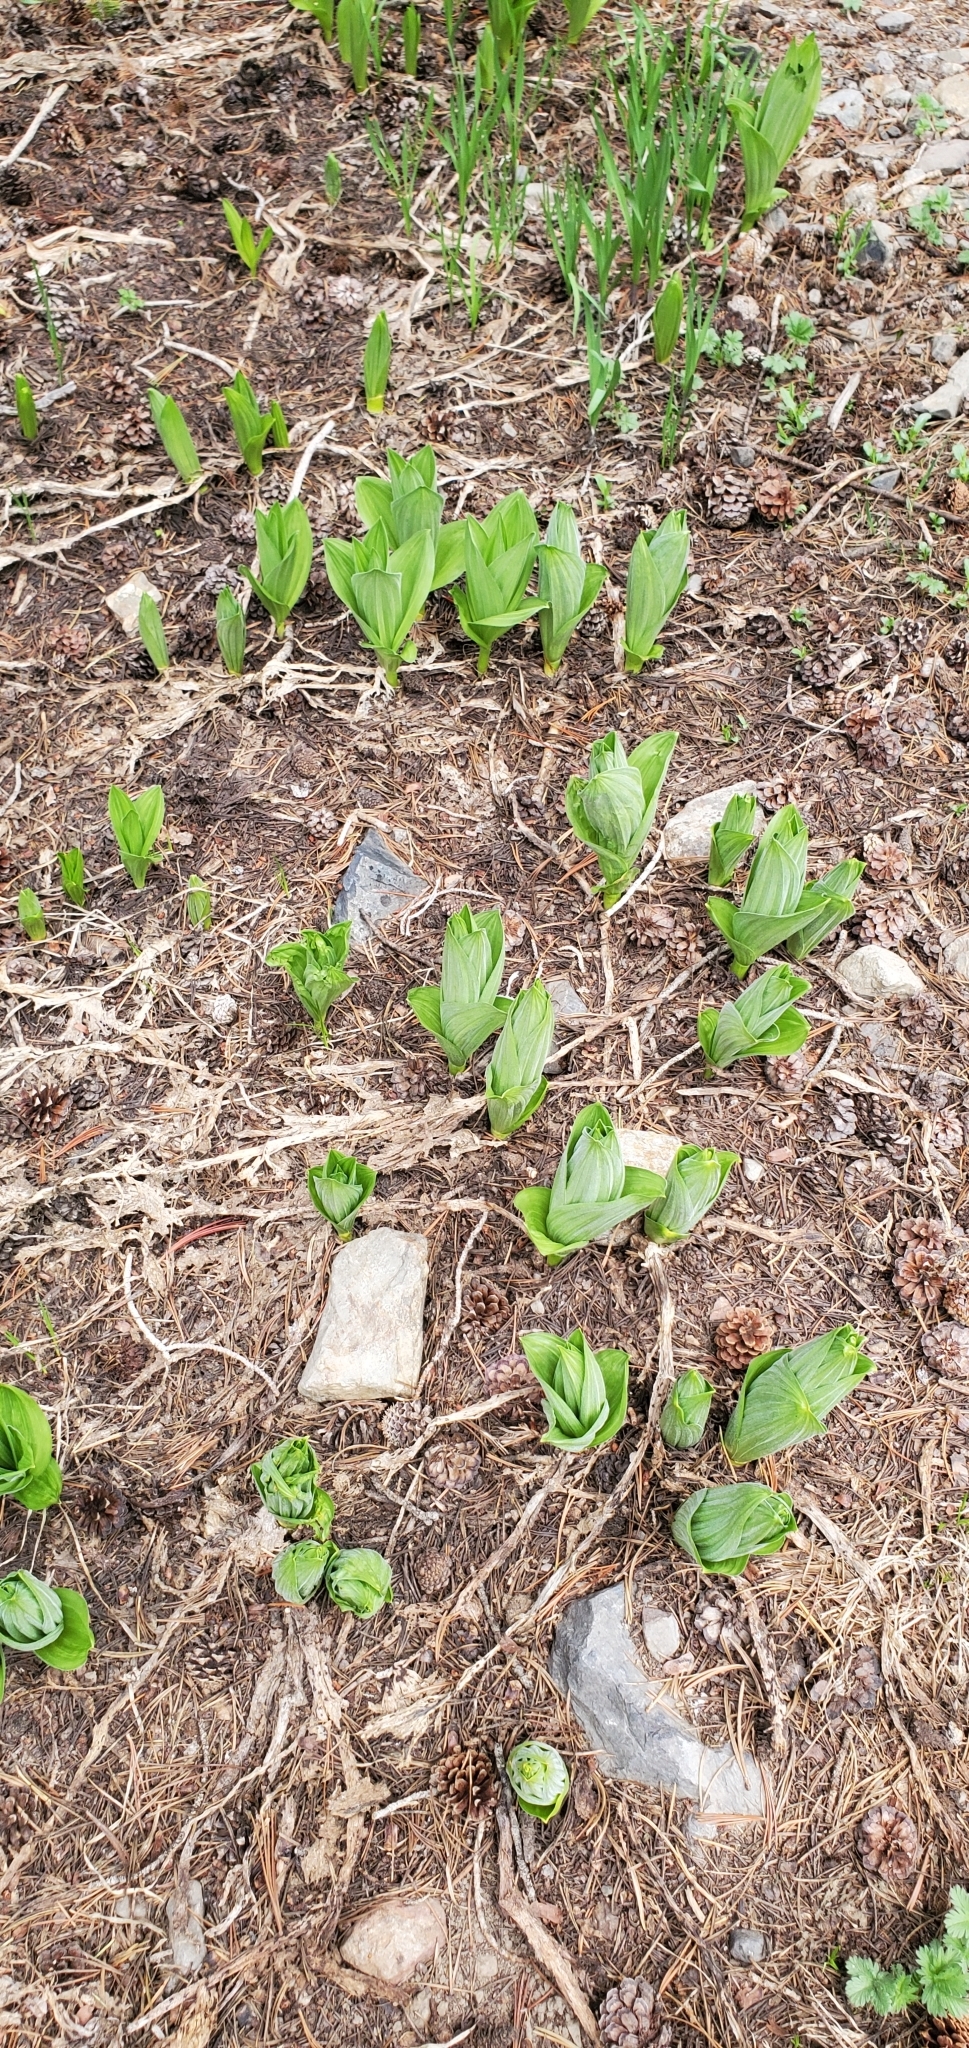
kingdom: Plantae
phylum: Tracheophyta
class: Liliopsida
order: Liliales
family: Melanthiaceae
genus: Veratrum
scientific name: Veratrum californicum
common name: California veratrum
